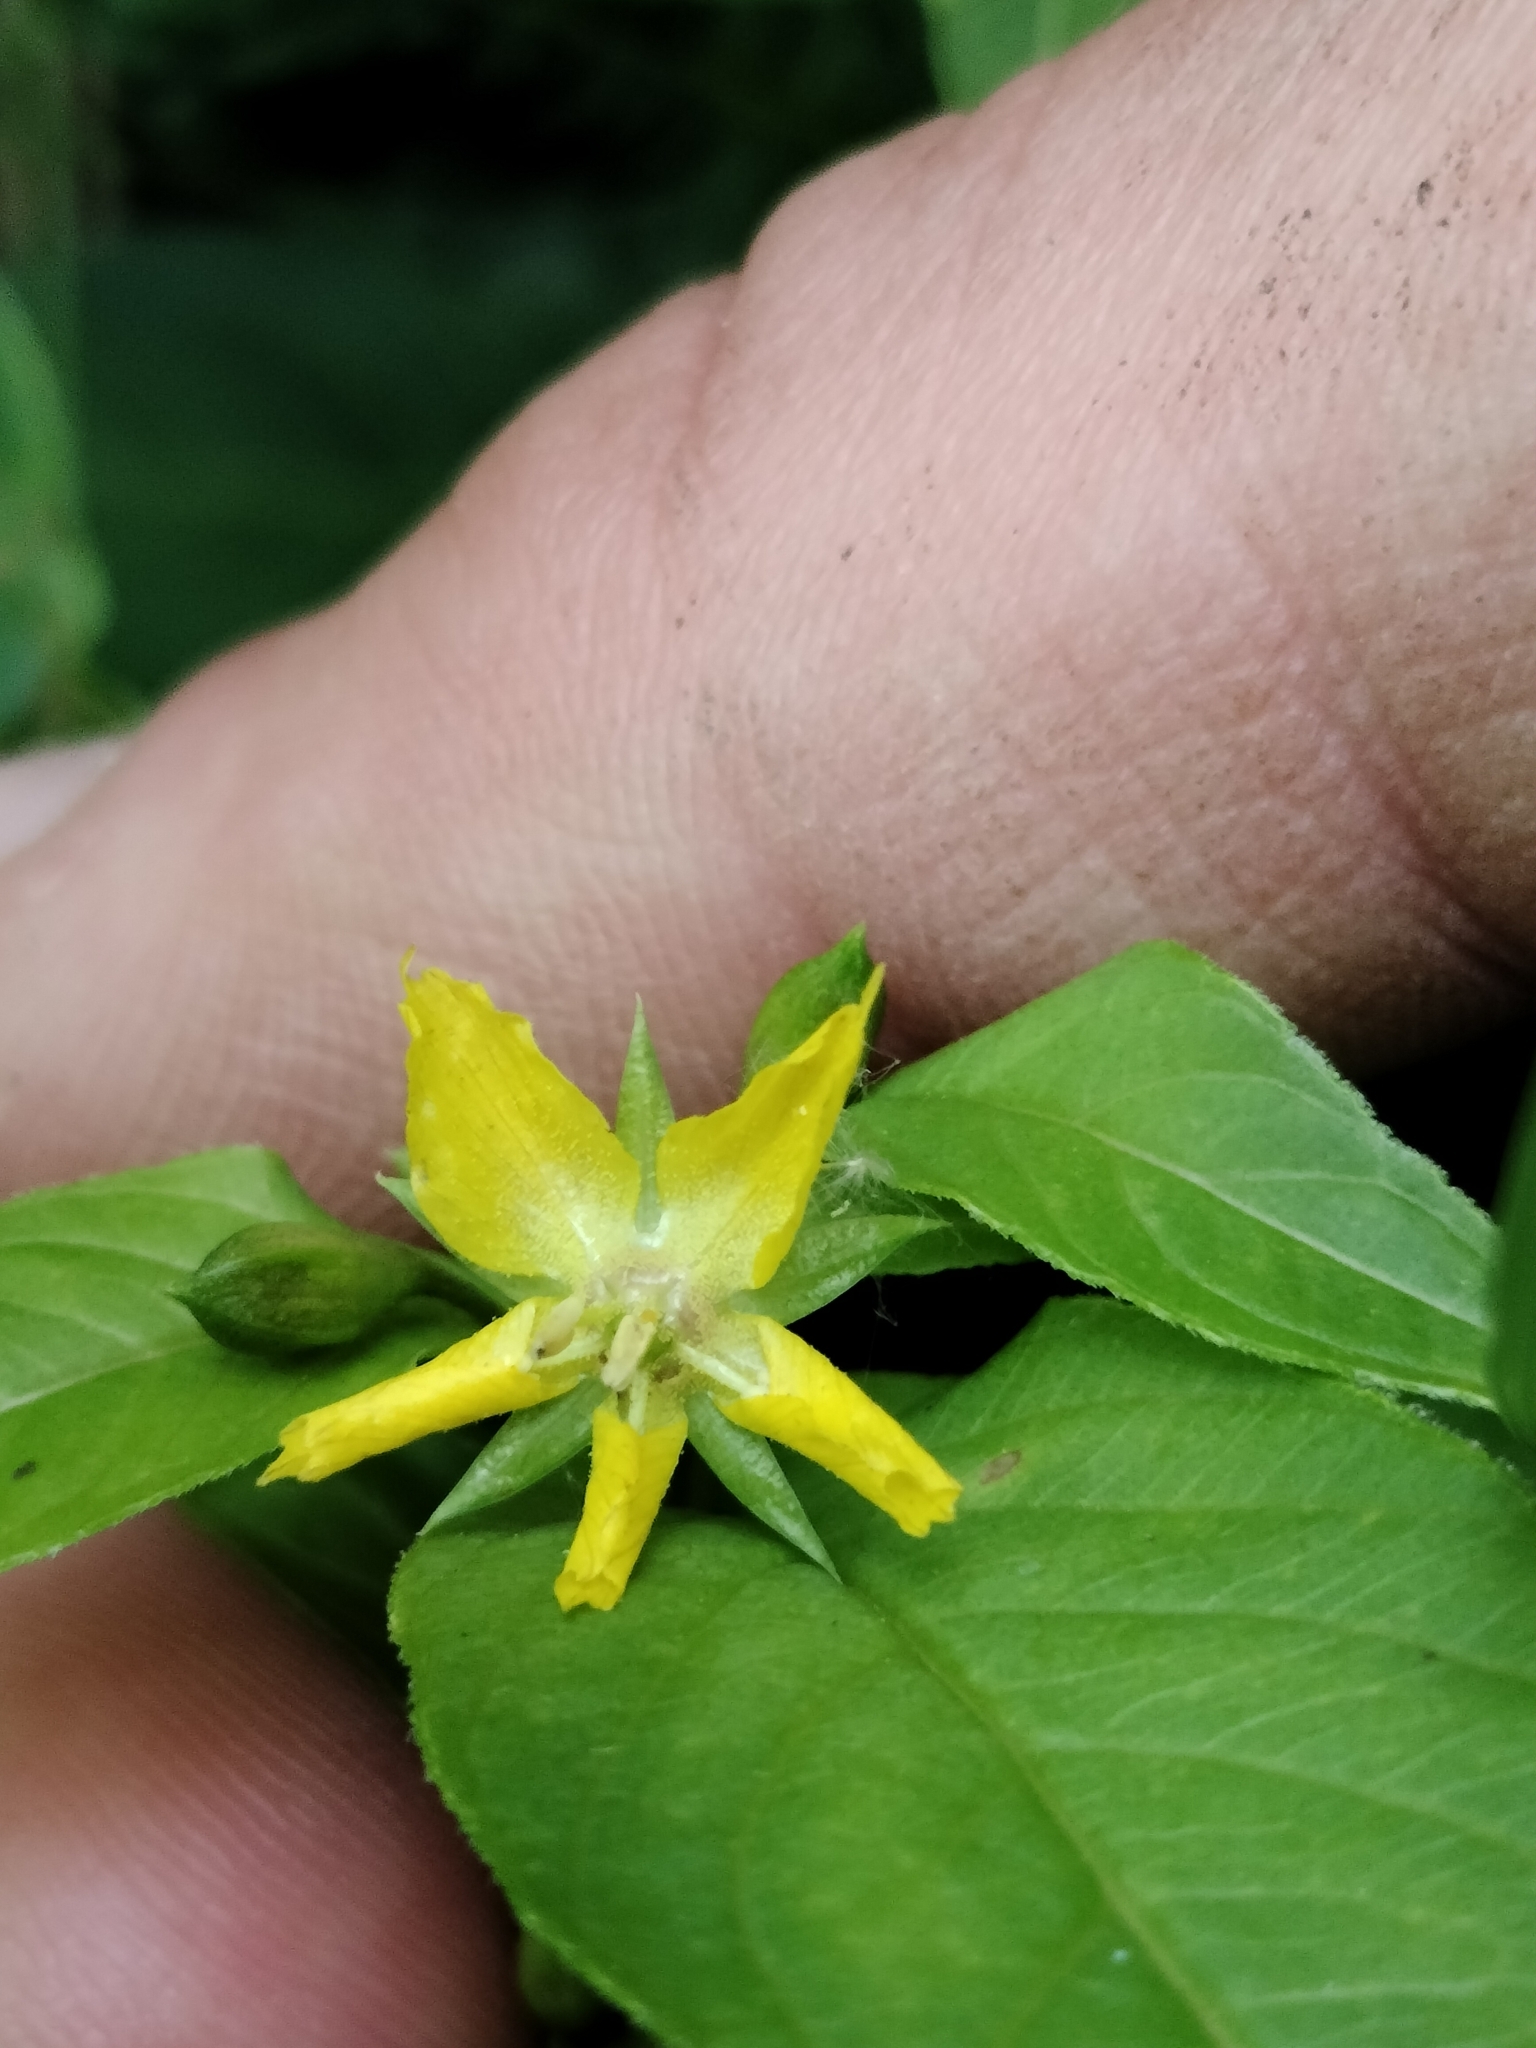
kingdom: Plantae
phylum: Tracheophyta
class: Magnoliopsida
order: Ericales
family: Primulaceae
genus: Lysimachia
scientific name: Lysimachia ciliata
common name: Fringed loosestrife
